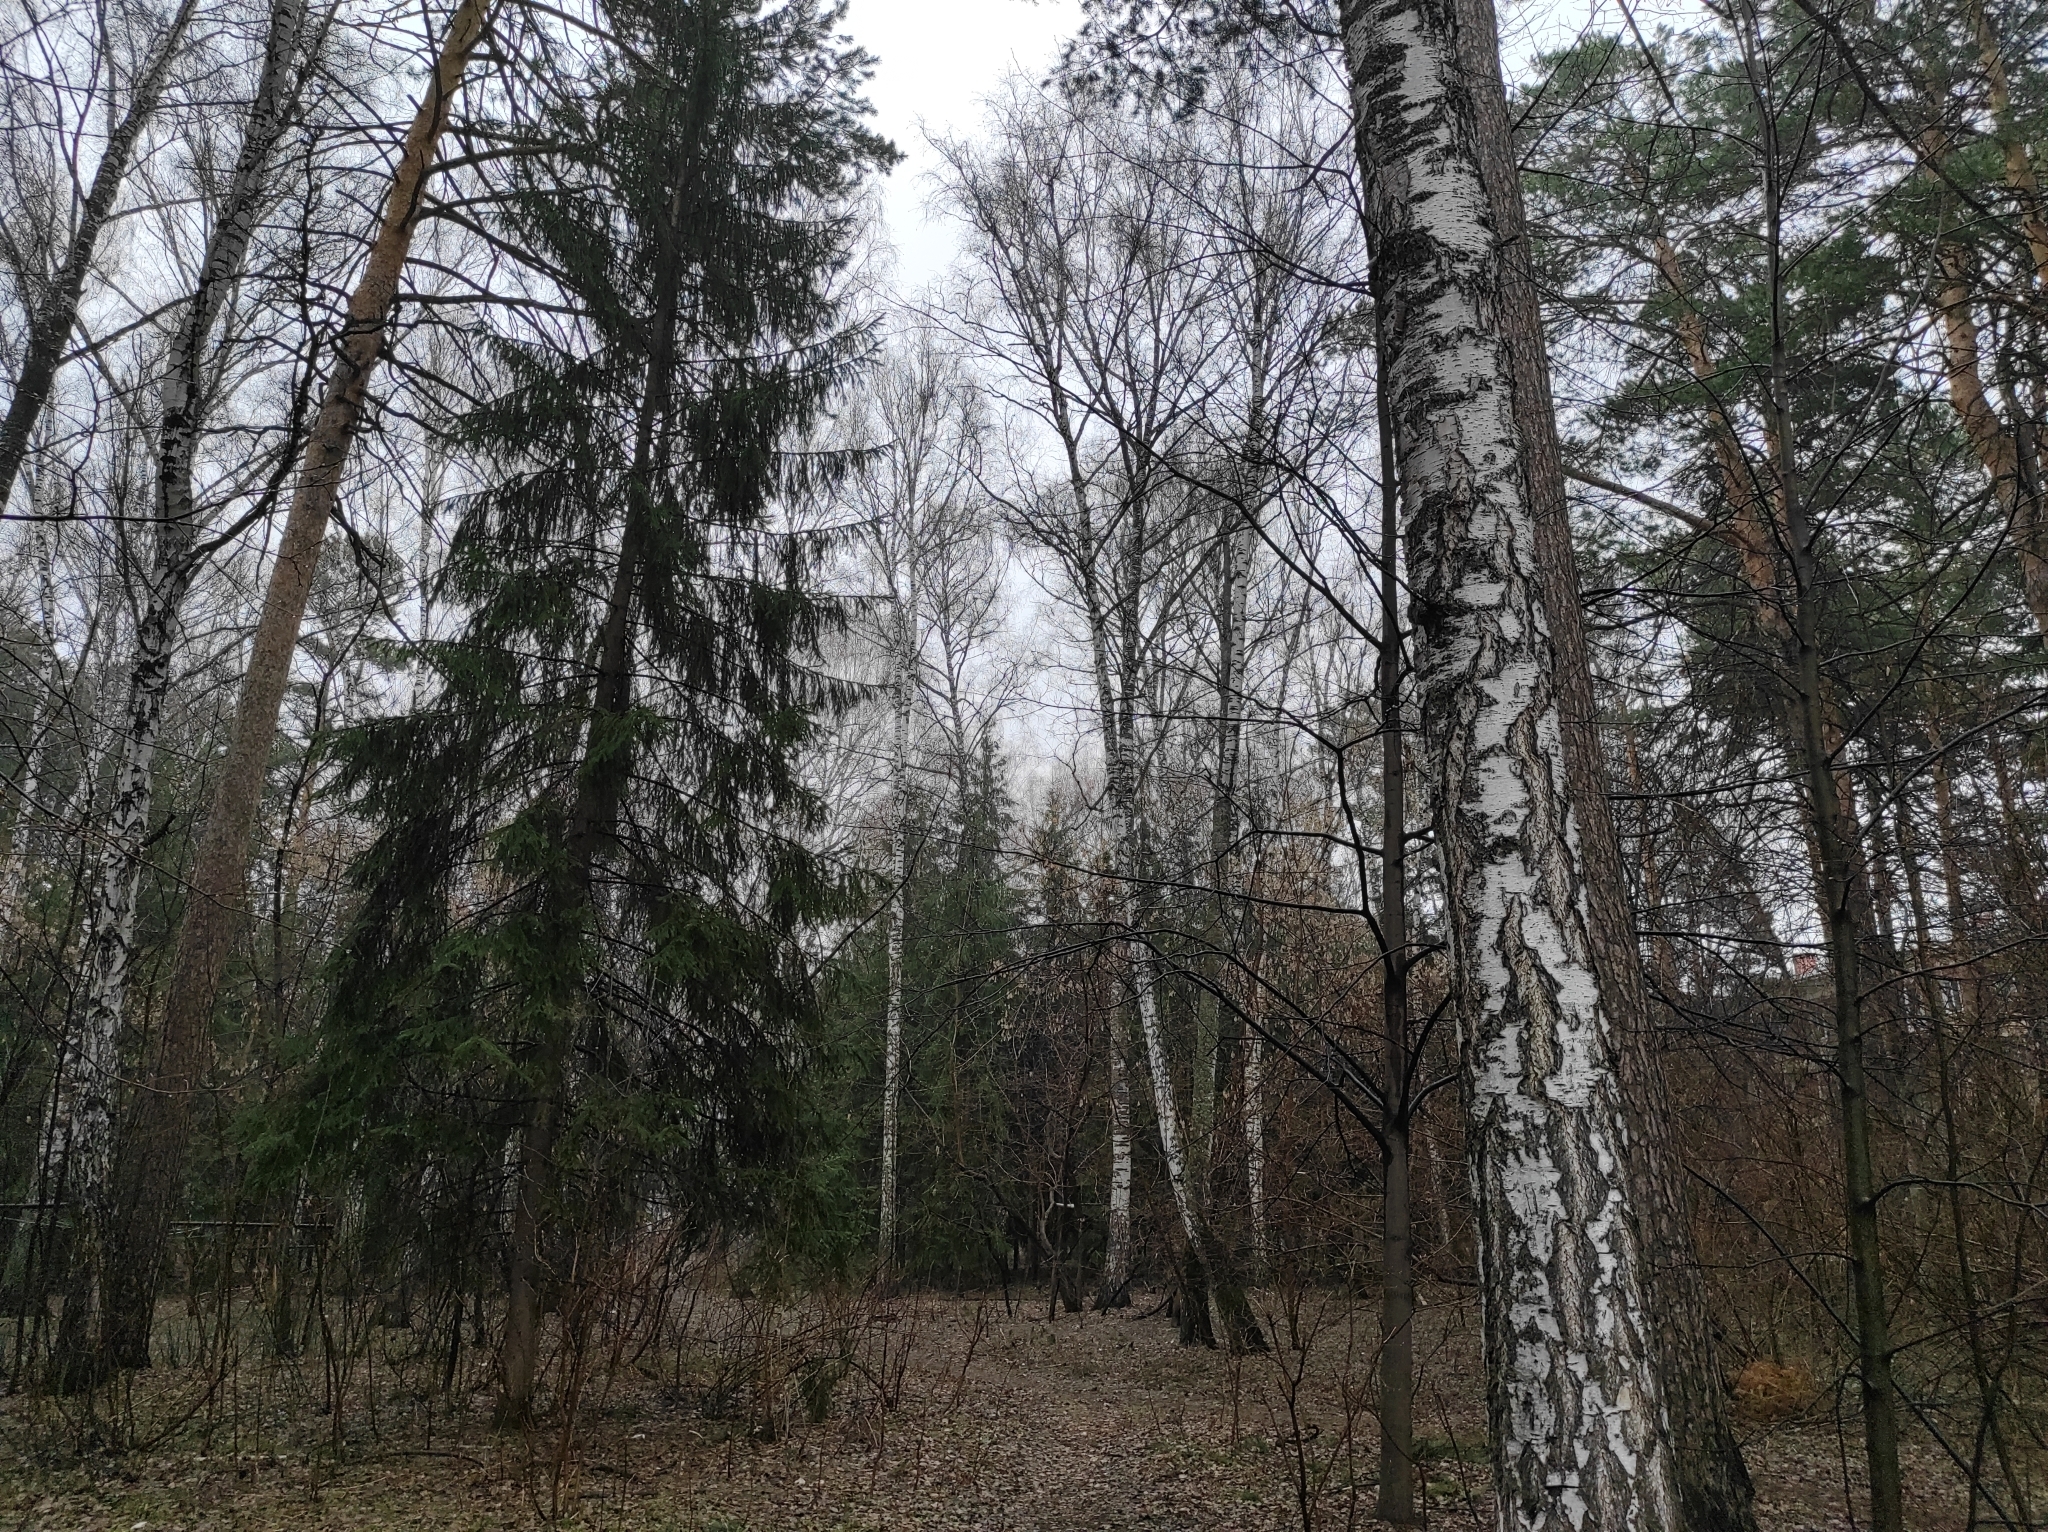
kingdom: Plantae
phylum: Tracheophyta
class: Pinopsida
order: Pinales
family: Pinaceae
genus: Pinus
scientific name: Pinus sylvestris
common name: Scots pine
